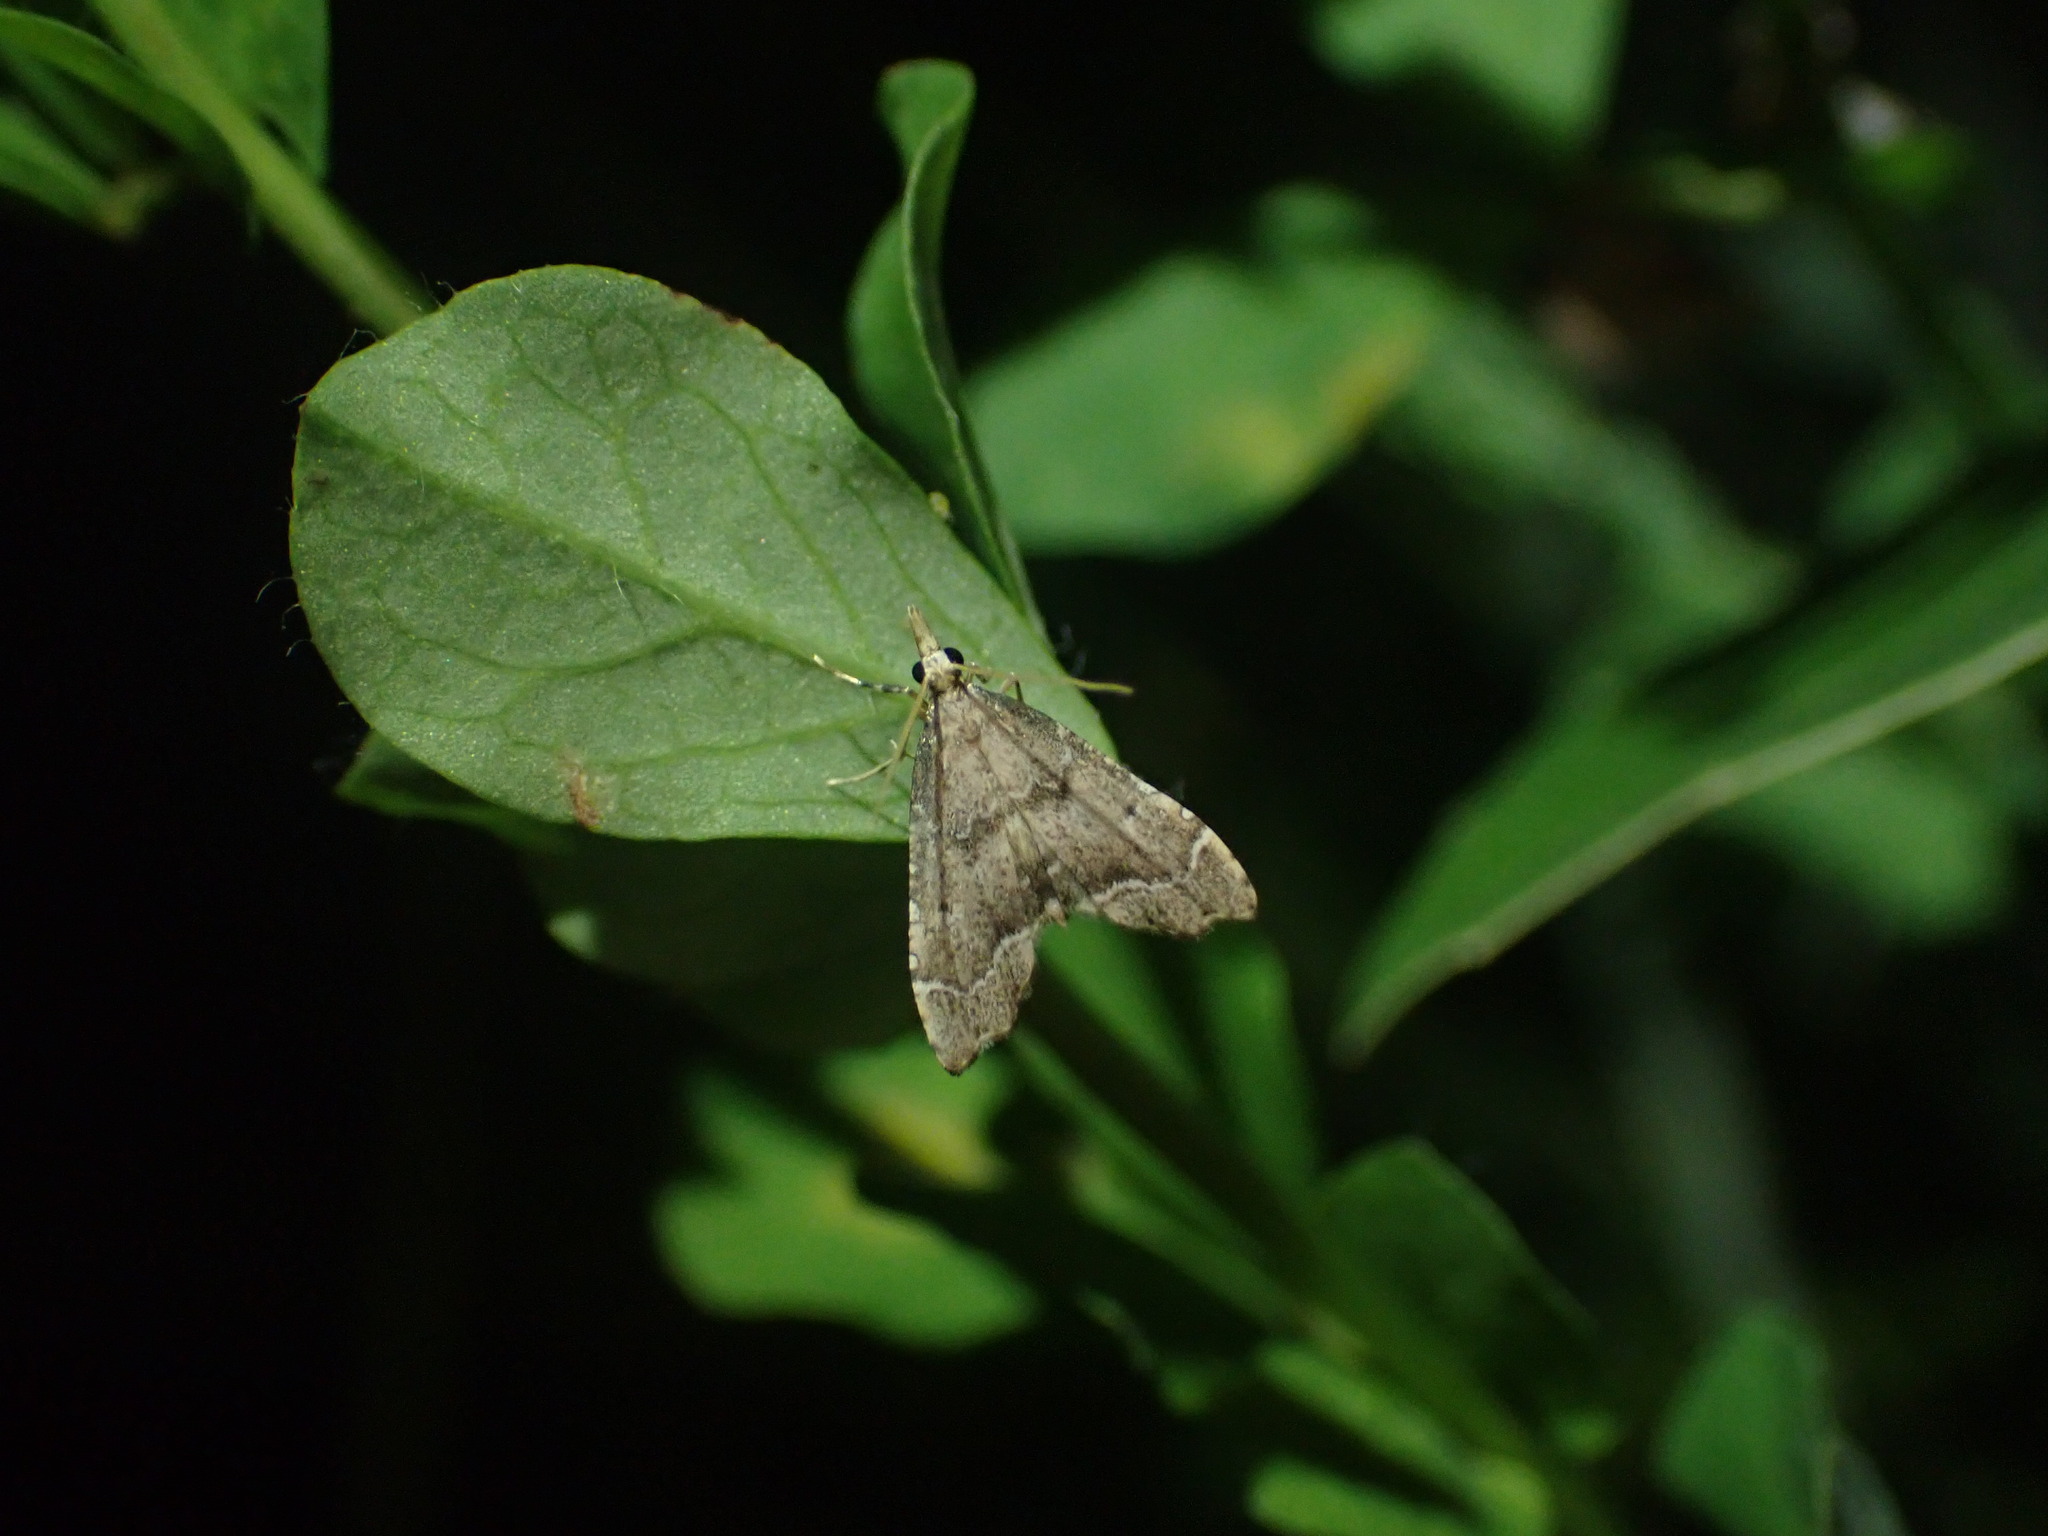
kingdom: Animalia
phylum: Arthropoda
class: Insecta
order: Lepidoptera
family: Crambidae
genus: Diplopseustis
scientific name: Diplopseustis perieresalis
